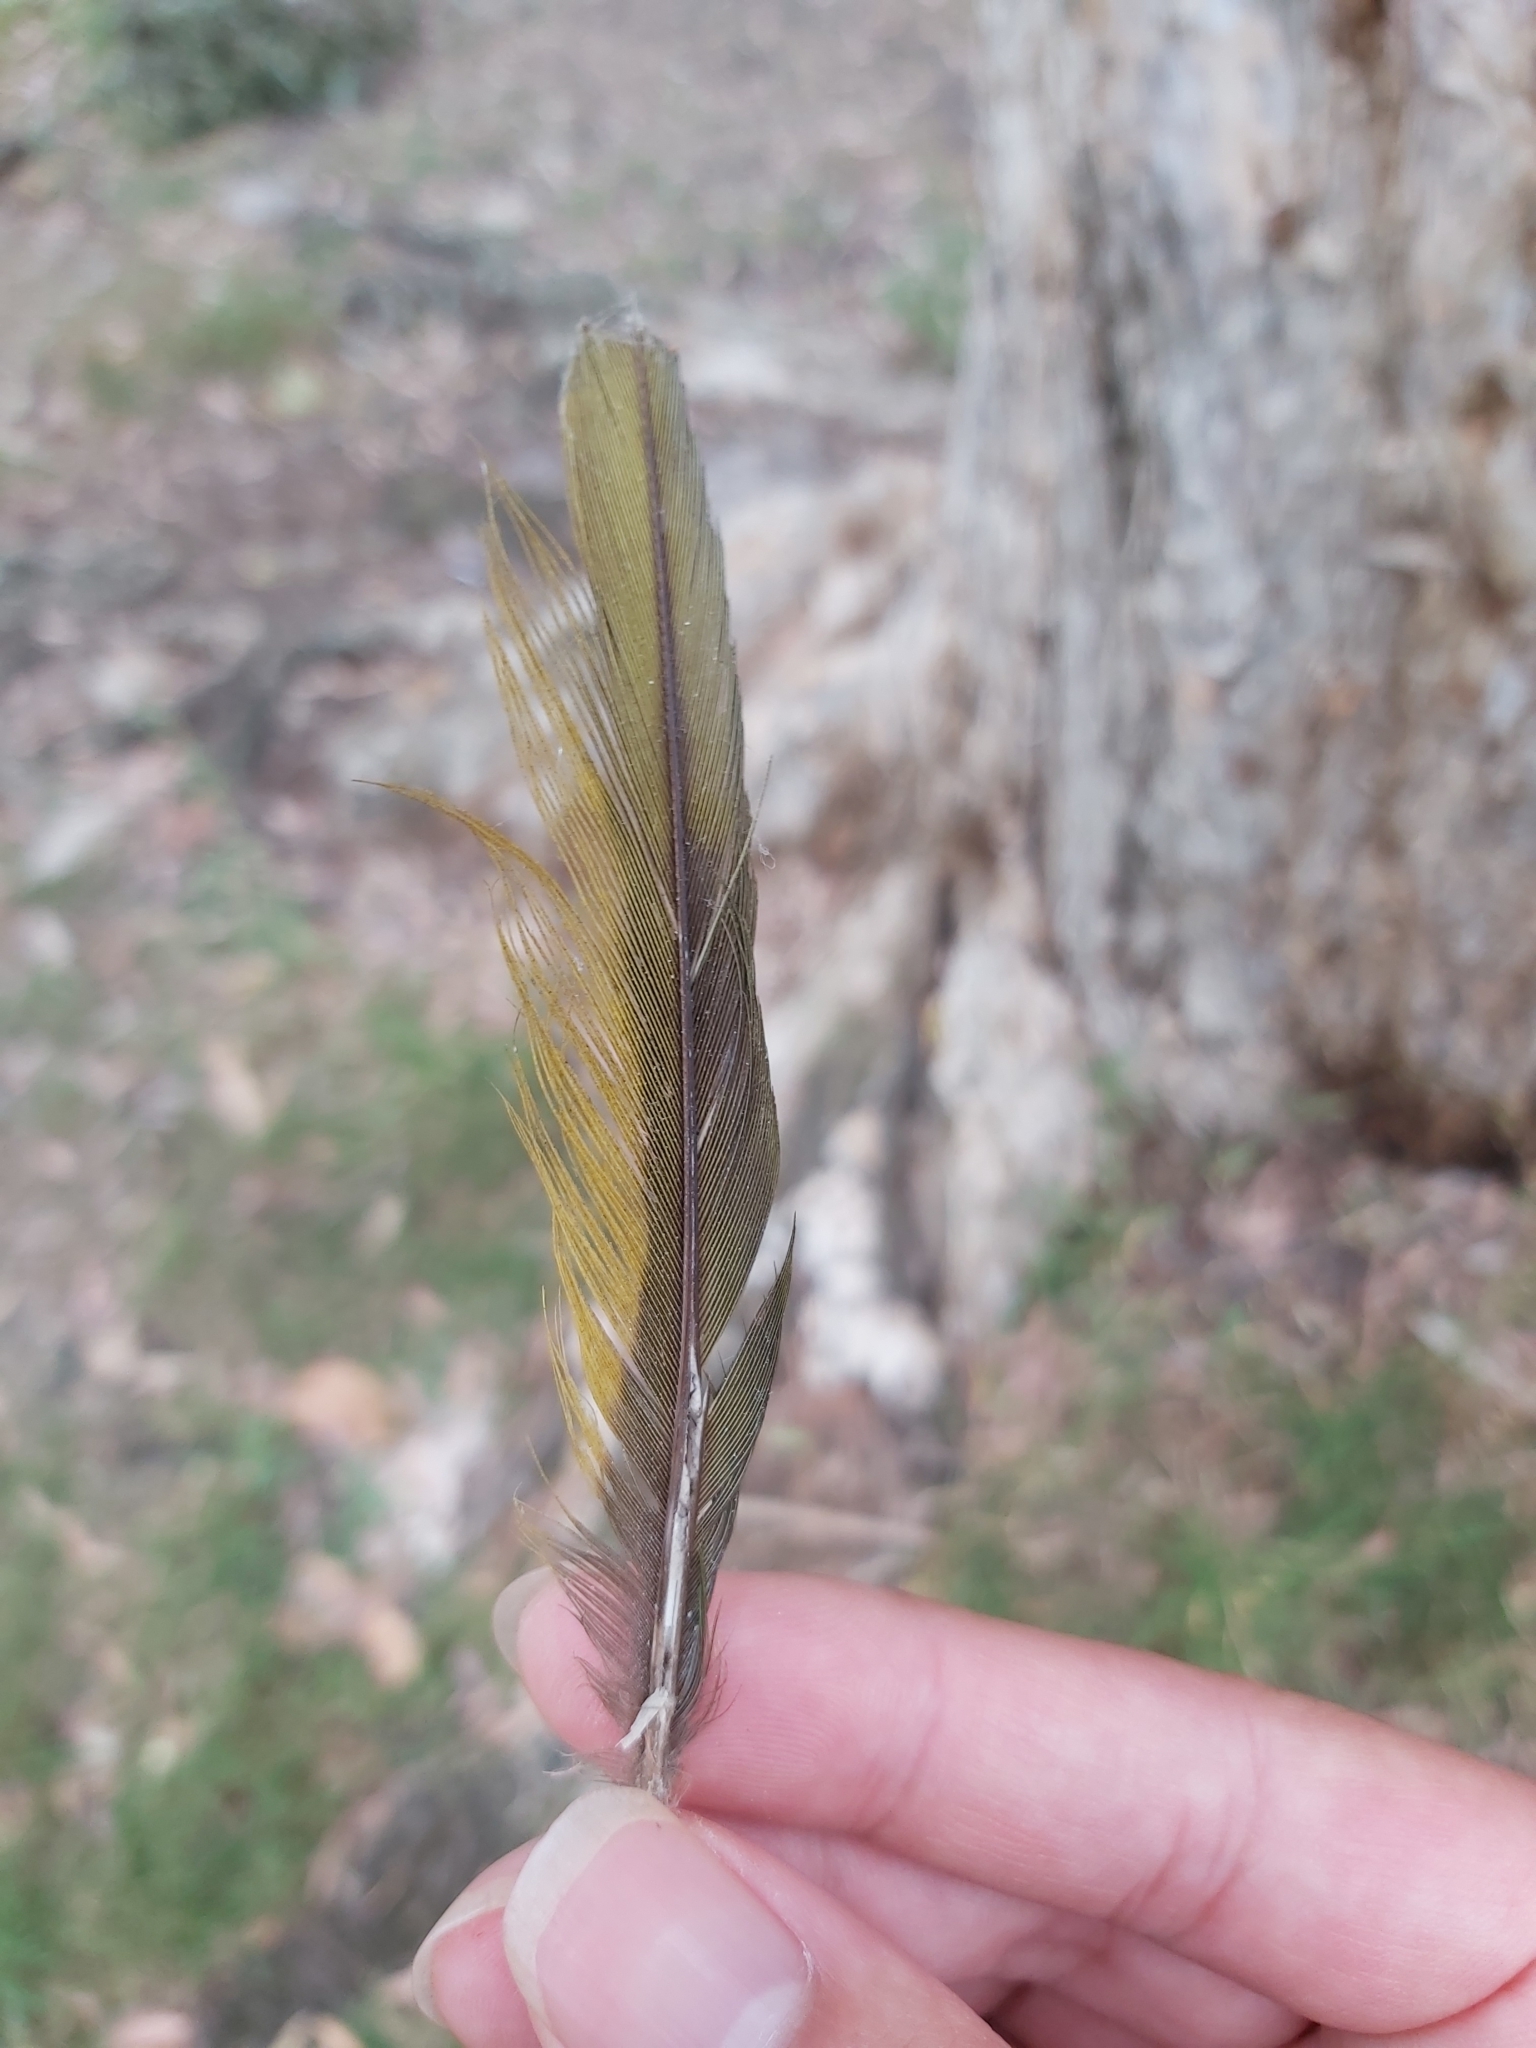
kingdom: Animalia
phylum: Chordata
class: Aves
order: Psittaciformes
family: Psittacidae
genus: Trichoglossus
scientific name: Trichoglossus haematodus
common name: Coconut lorikeet
